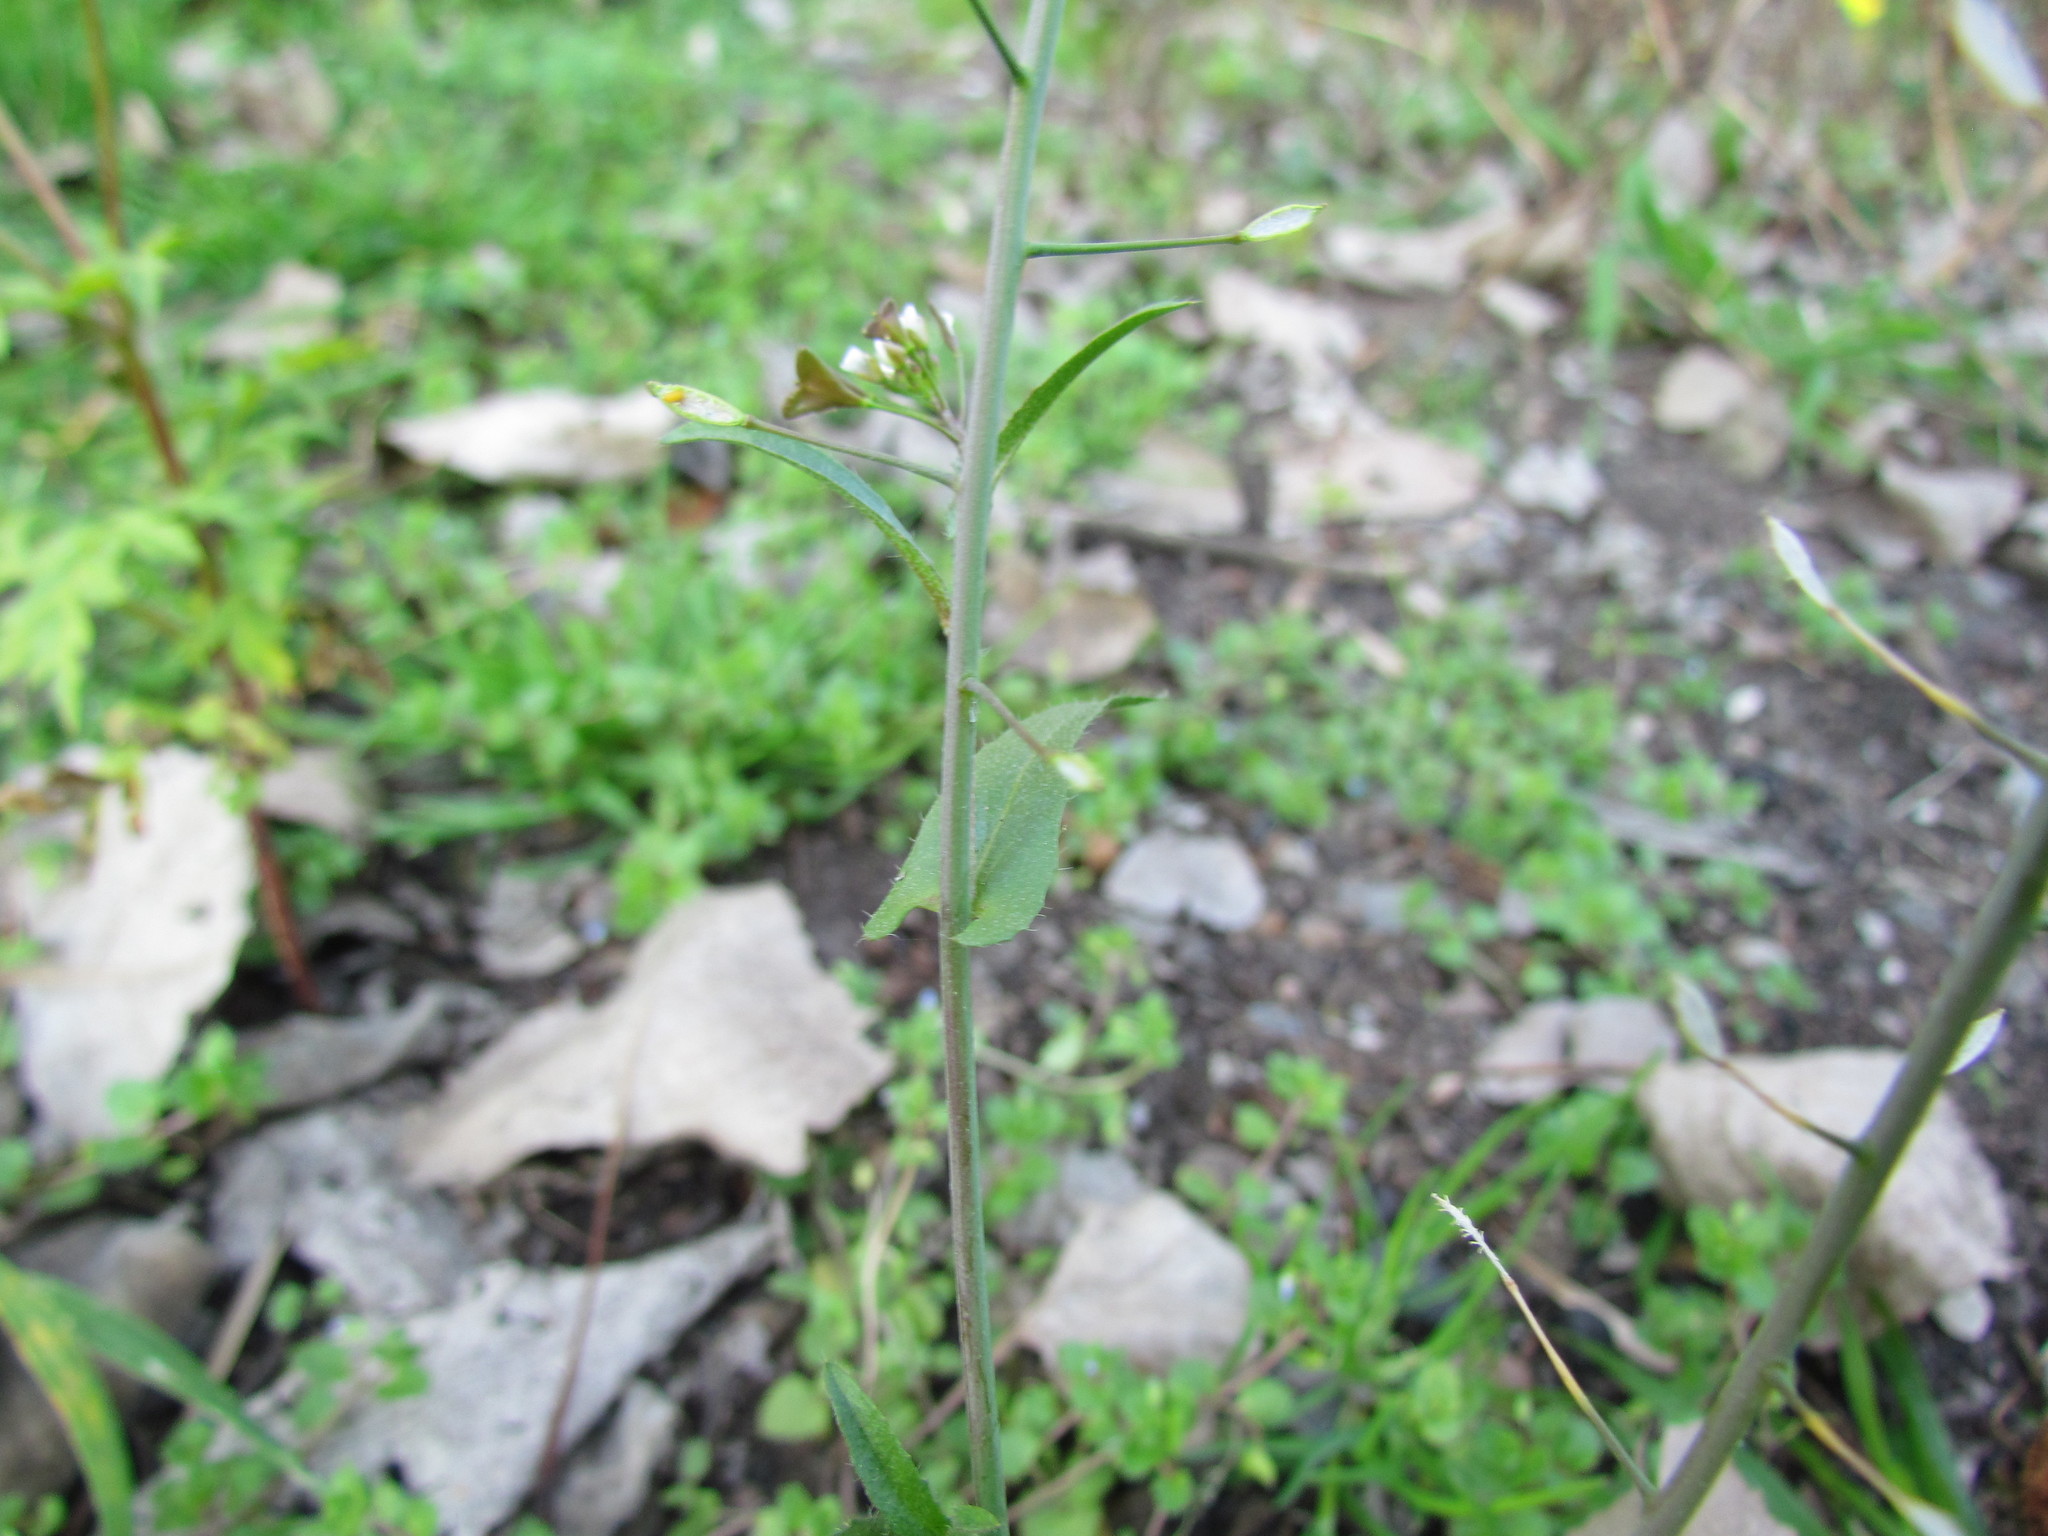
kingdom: Plantae
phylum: Tracheophyta
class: Magnoliopsida
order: Brassicales
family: Brassicaceae
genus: Capsella
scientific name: Capsella bursa-pastoris
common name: Shepherd's purse
